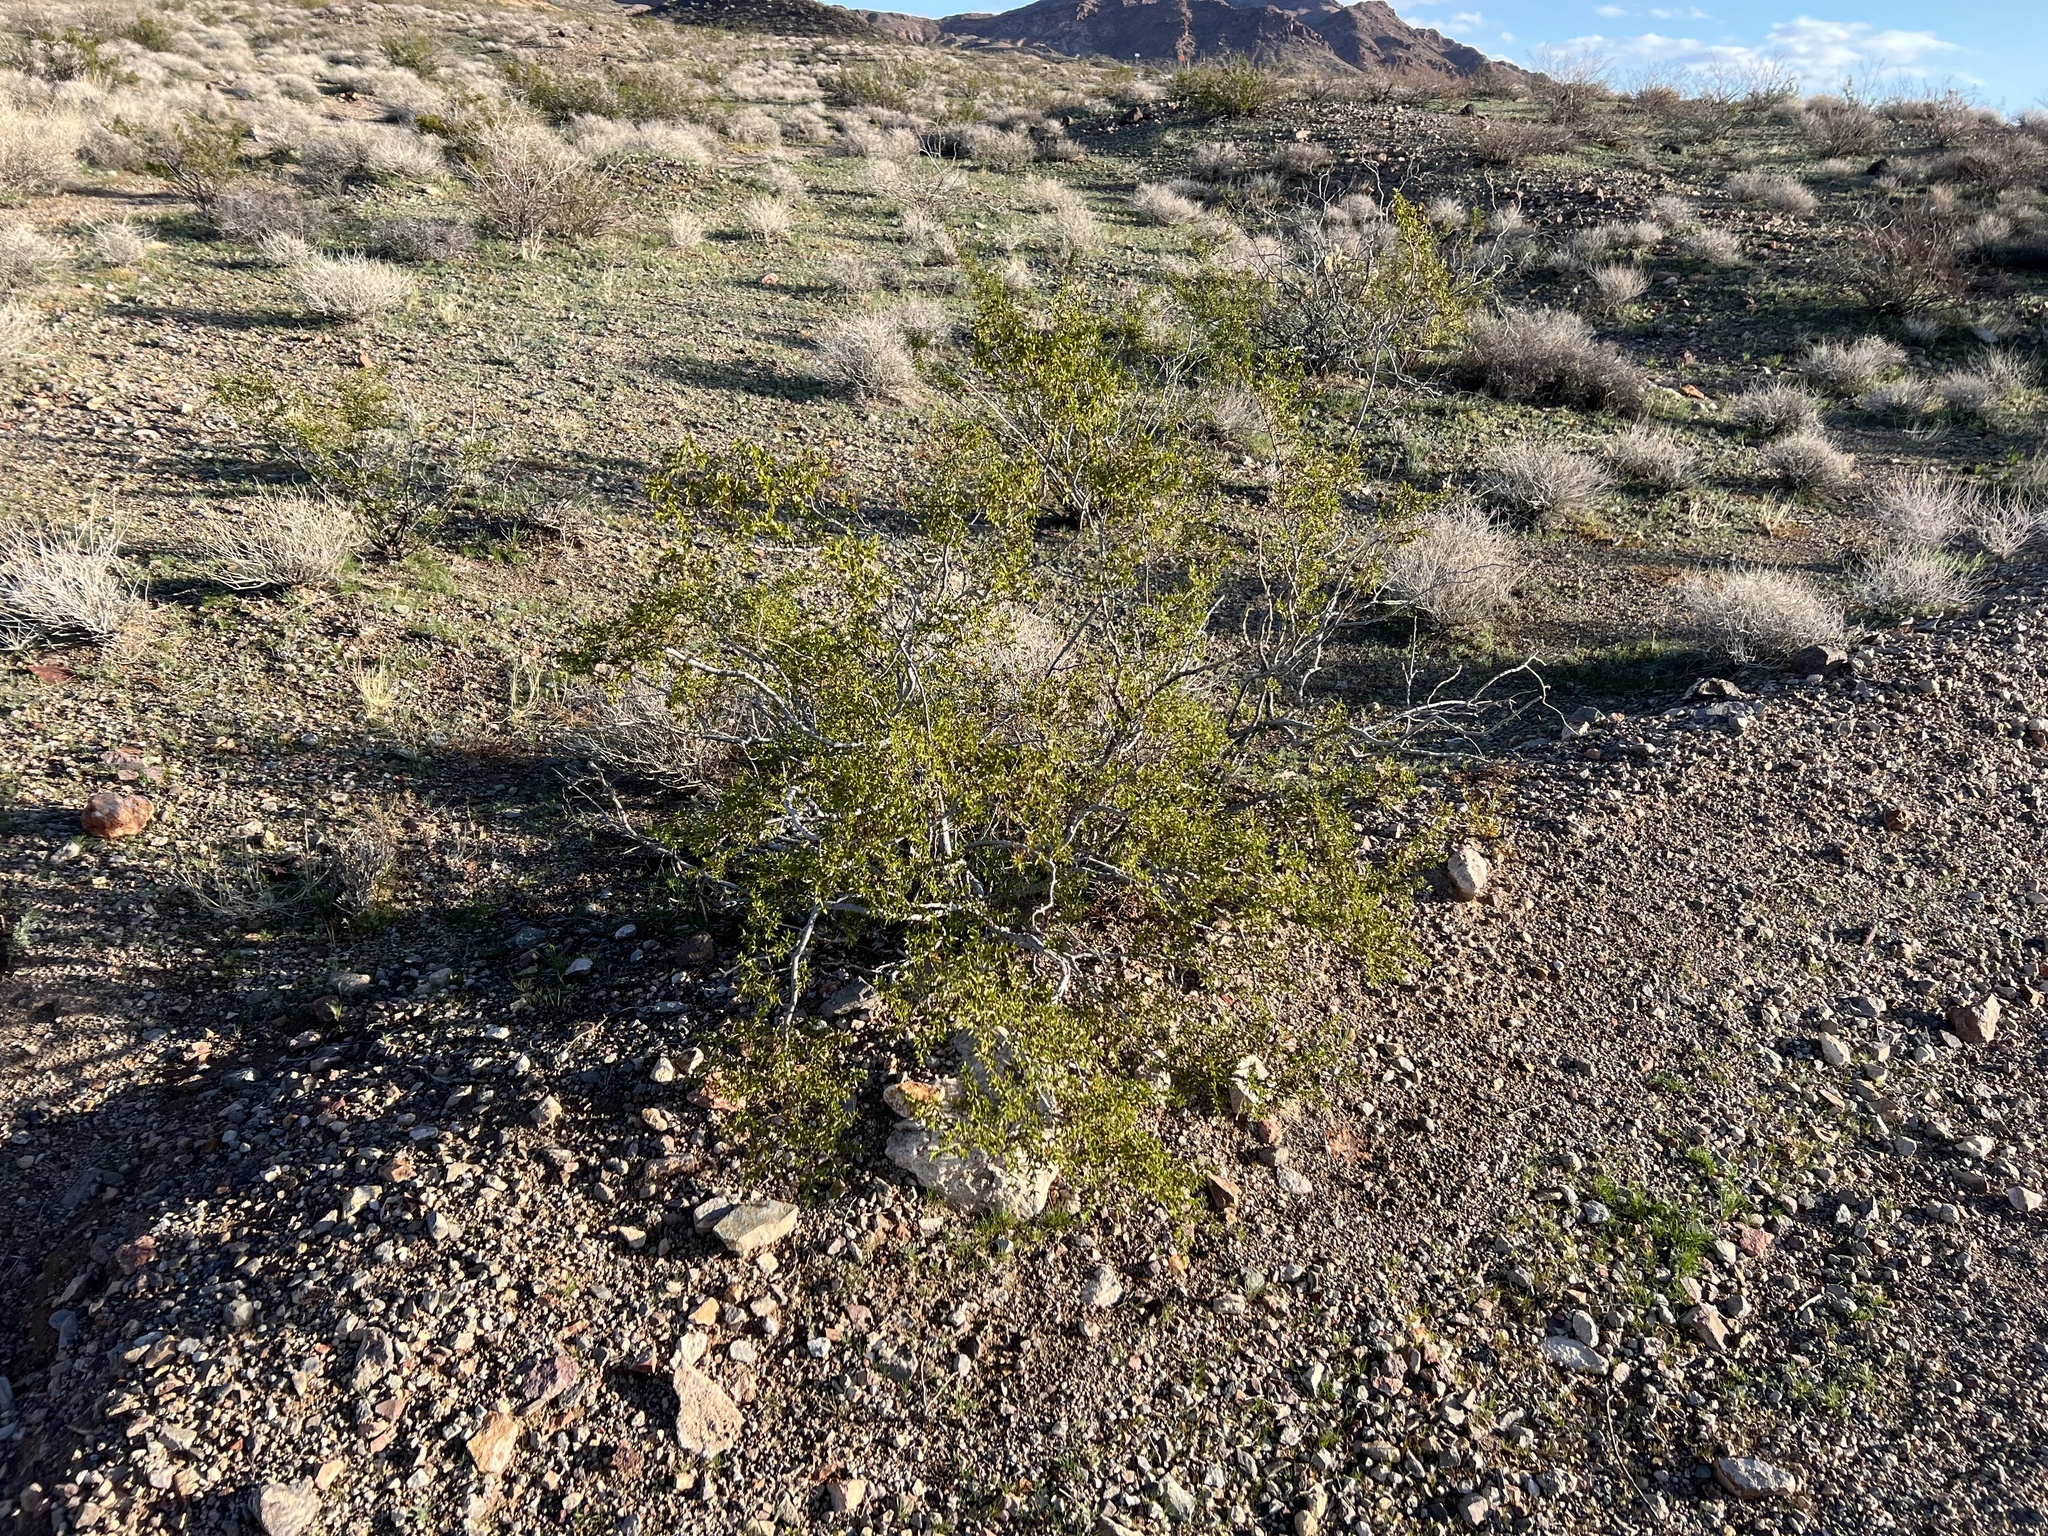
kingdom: Plantae
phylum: Tracheophyta
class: Magnoliopsida
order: Zygophyllales
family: Zygophyllaceae
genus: Larrea
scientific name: Larrea tridentata
